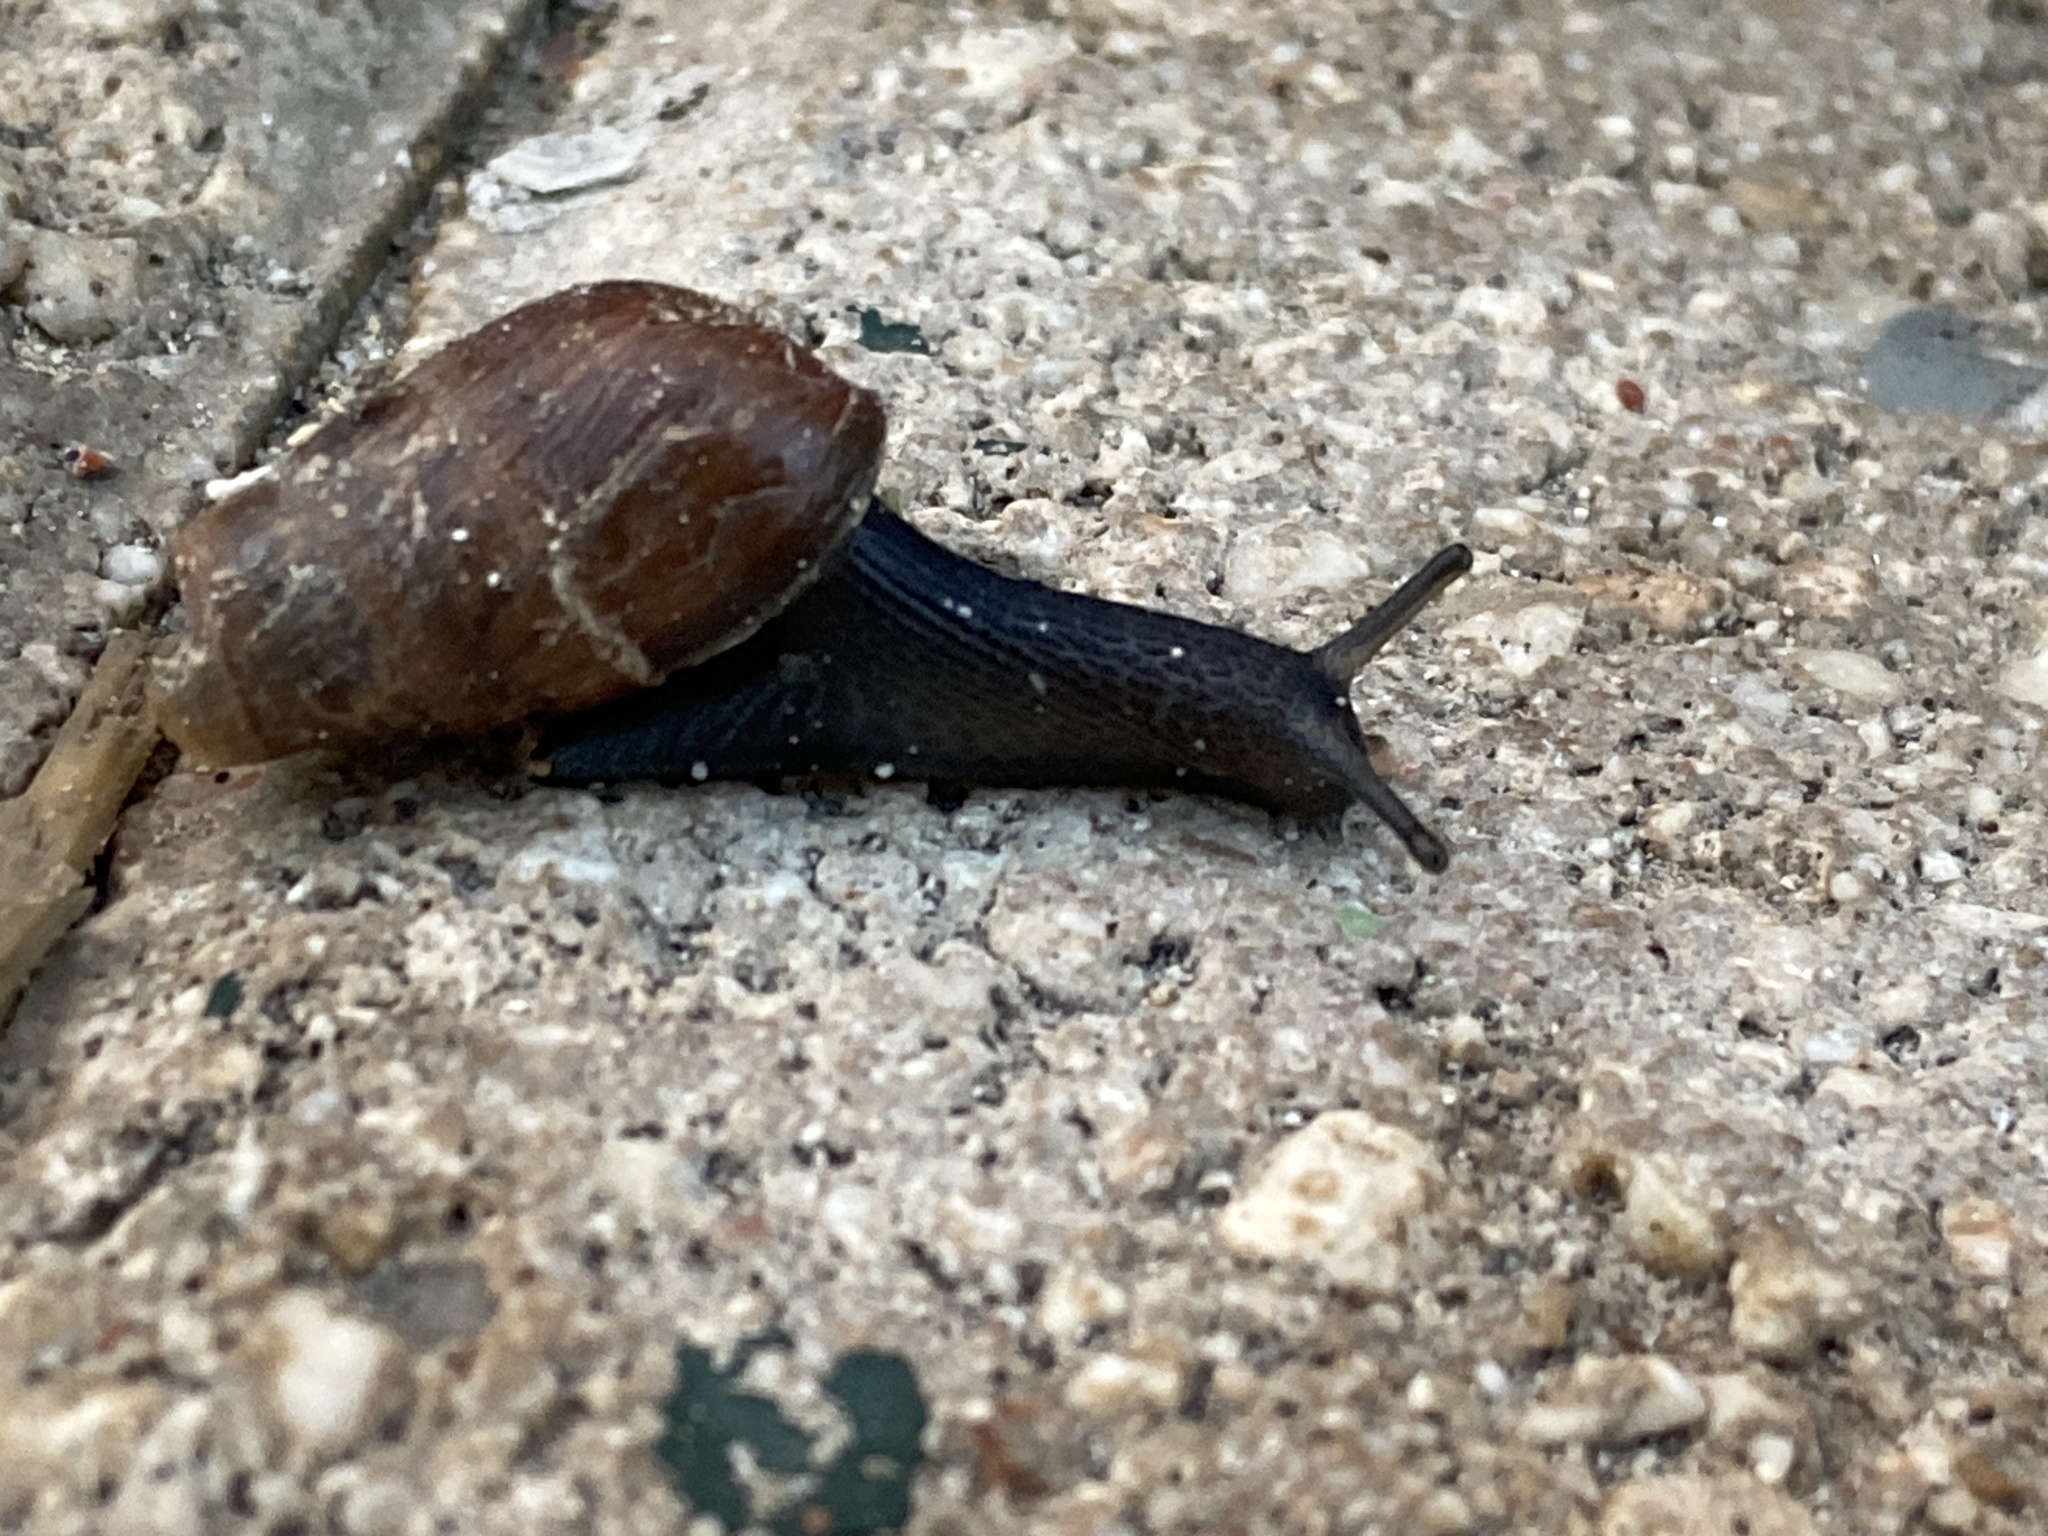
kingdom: Animalia
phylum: Mollusca
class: Gastropoda
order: Stylommatophora
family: Achatinidae
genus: Rumina
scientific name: Rumina decollata
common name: Decollate snail
